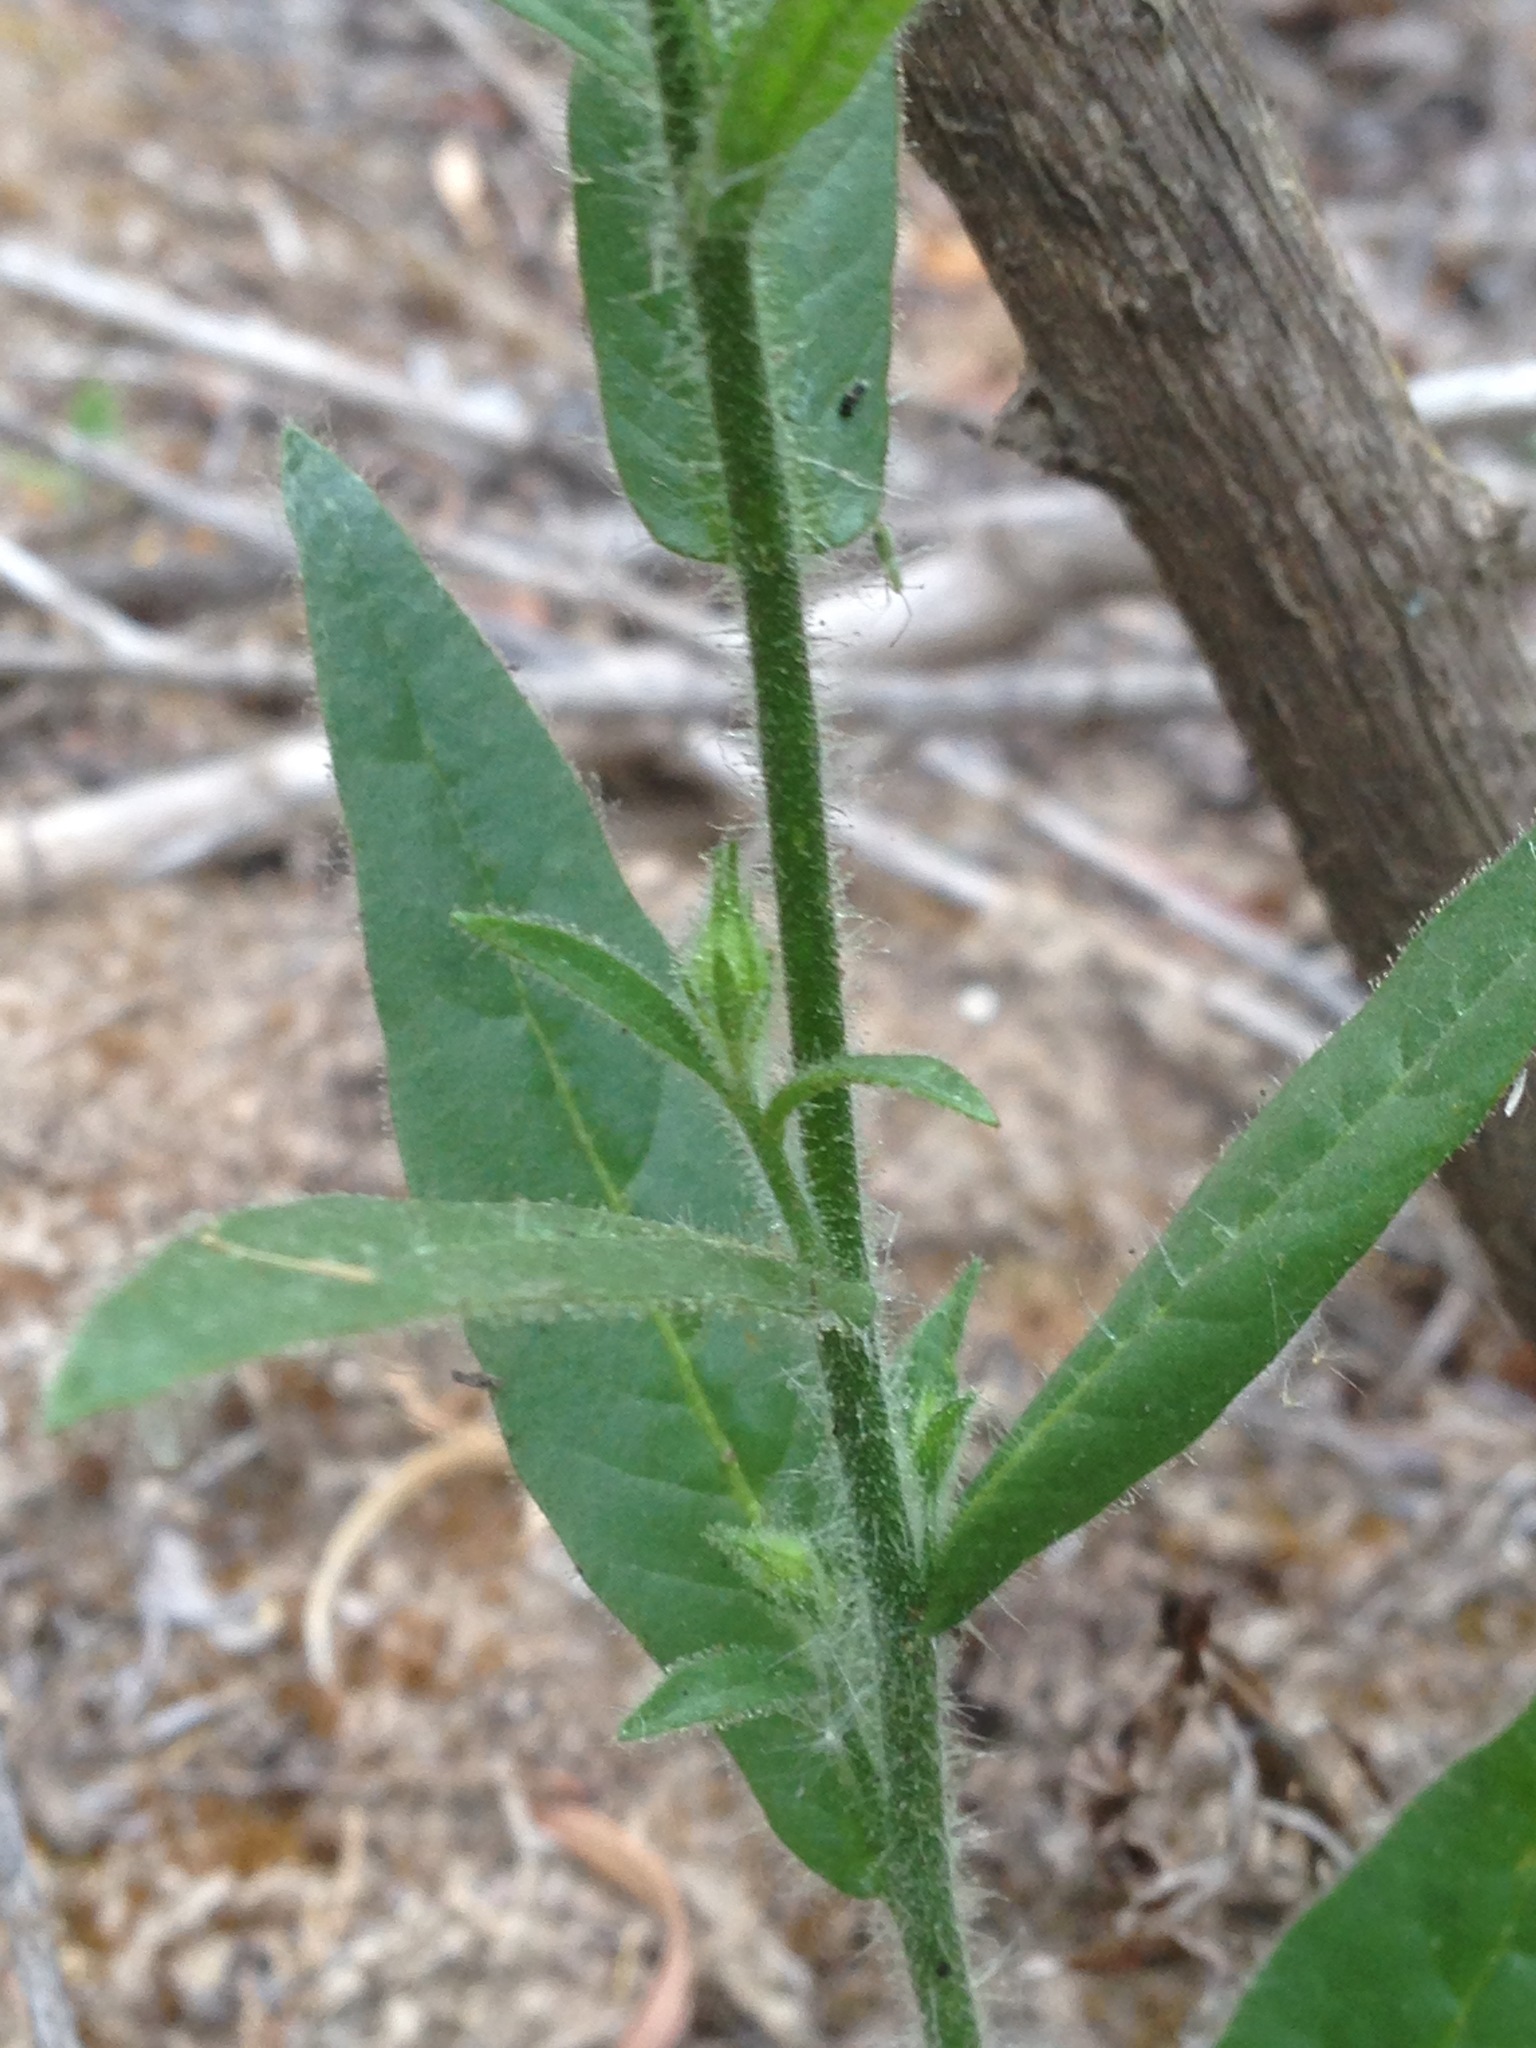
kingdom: Plantae
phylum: Tracheophyta
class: Magnoliopsida
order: Solanales
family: Solanaceae
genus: Nicotiana
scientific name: Nicotiana quadrivalvis
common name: Indian tobacco
